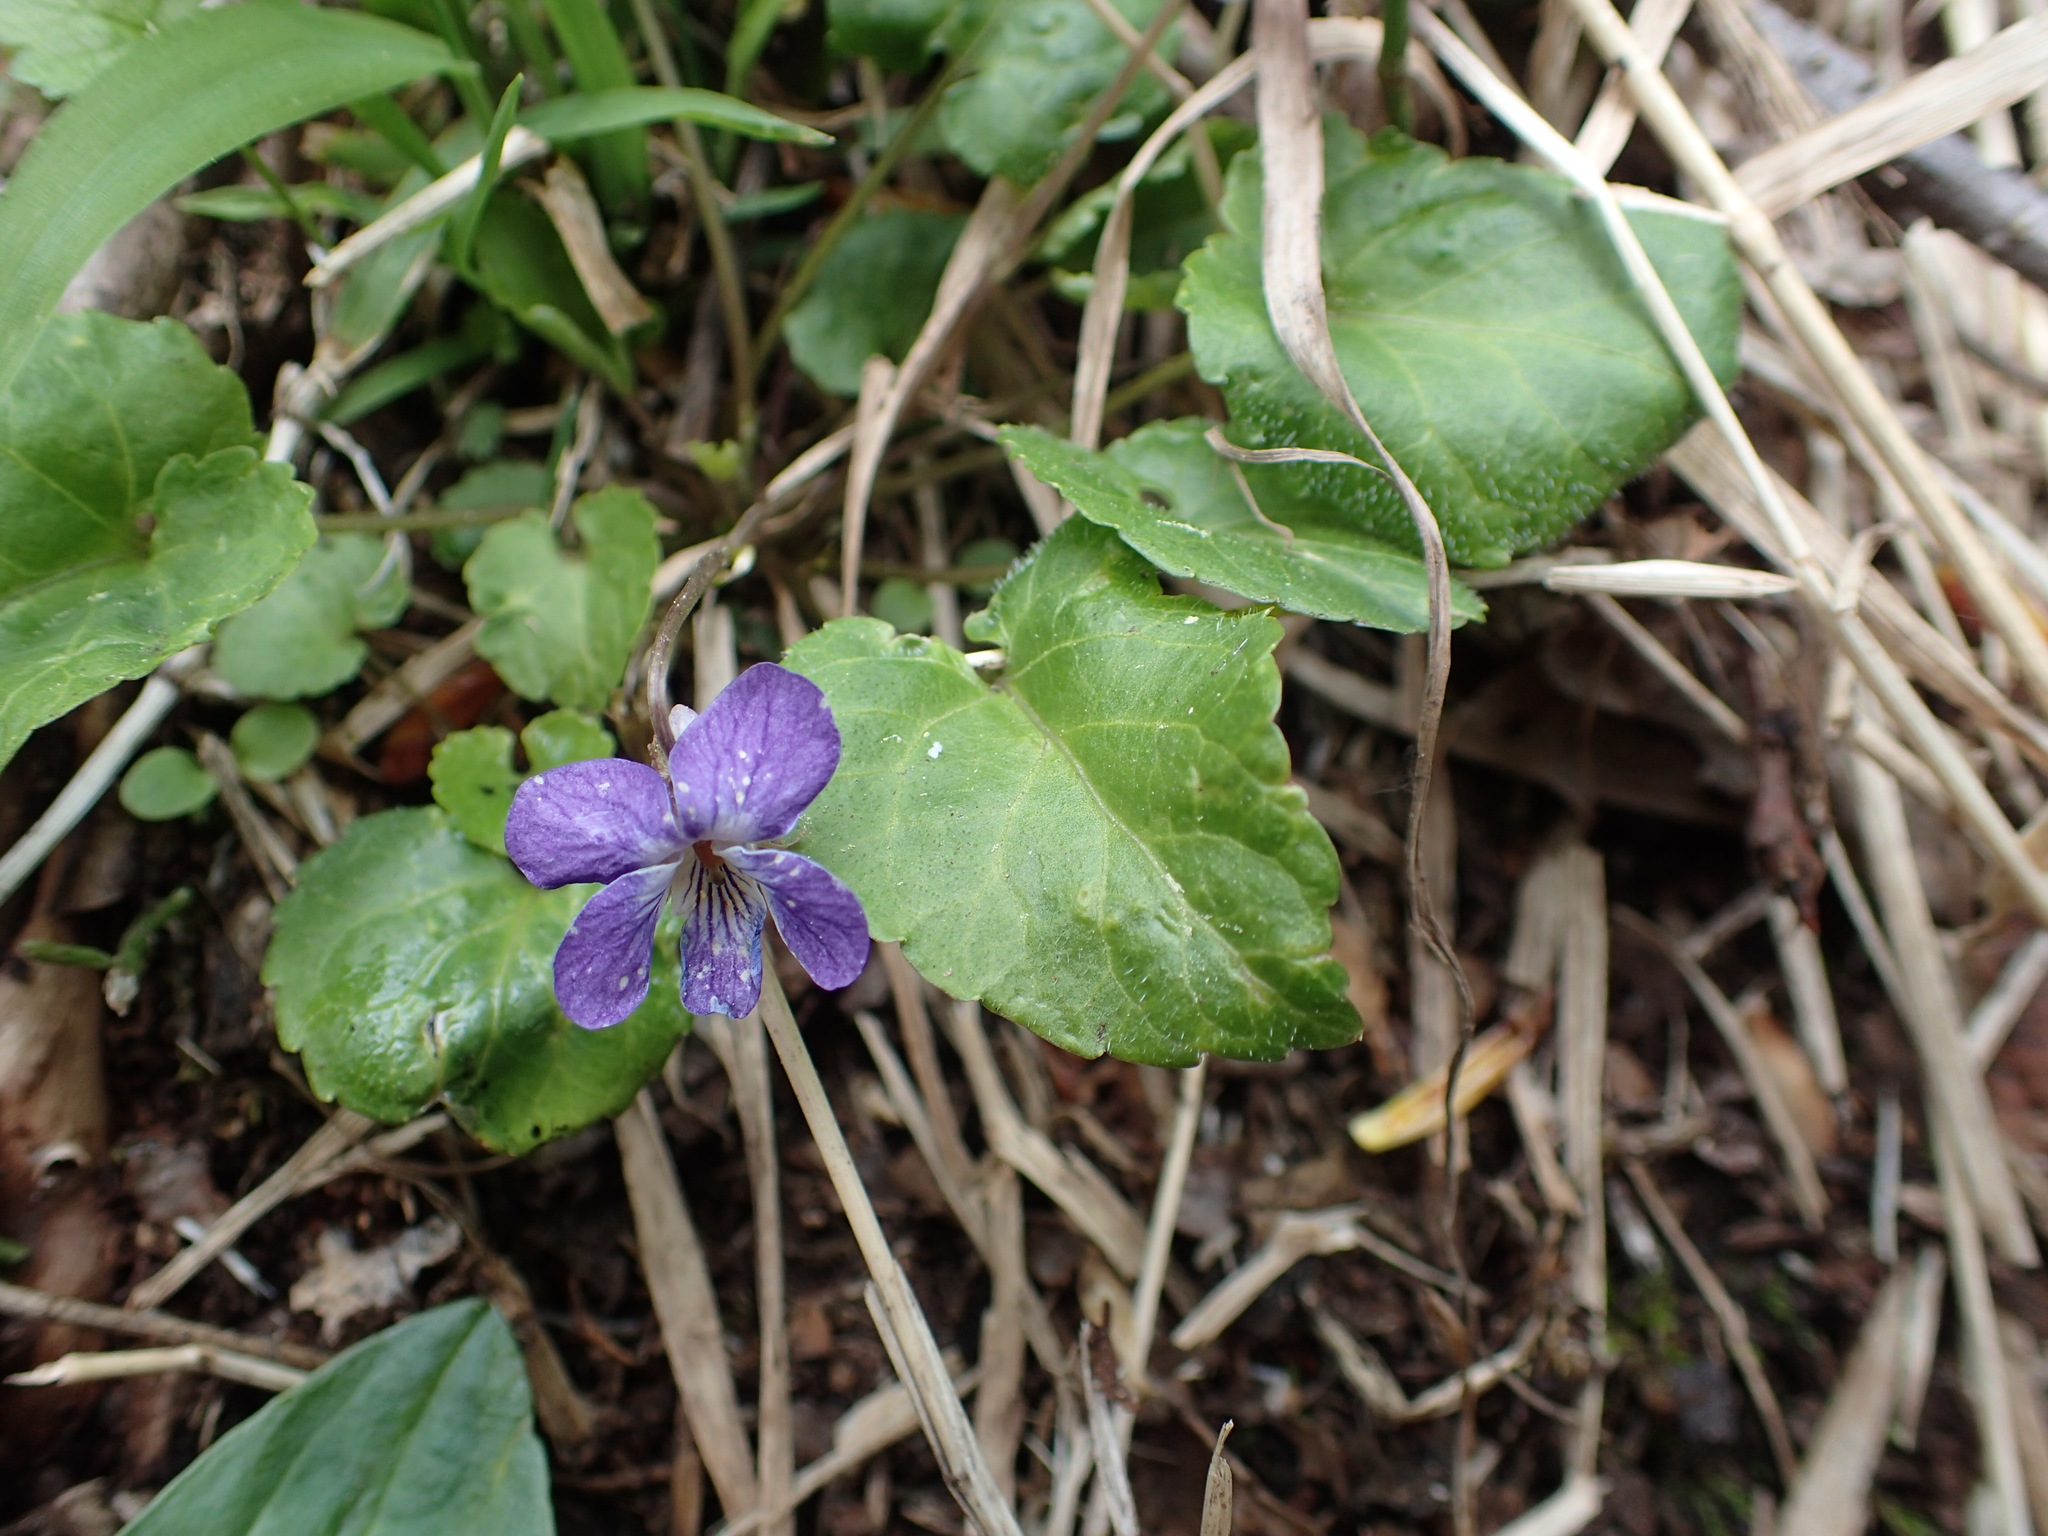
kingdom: Plantae
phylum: Tracheophyta
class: Magnoliopsida
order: Malpighiales
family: Violaceae
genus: Viola
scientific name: Viola selkirkii
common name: Selkirk's violet
